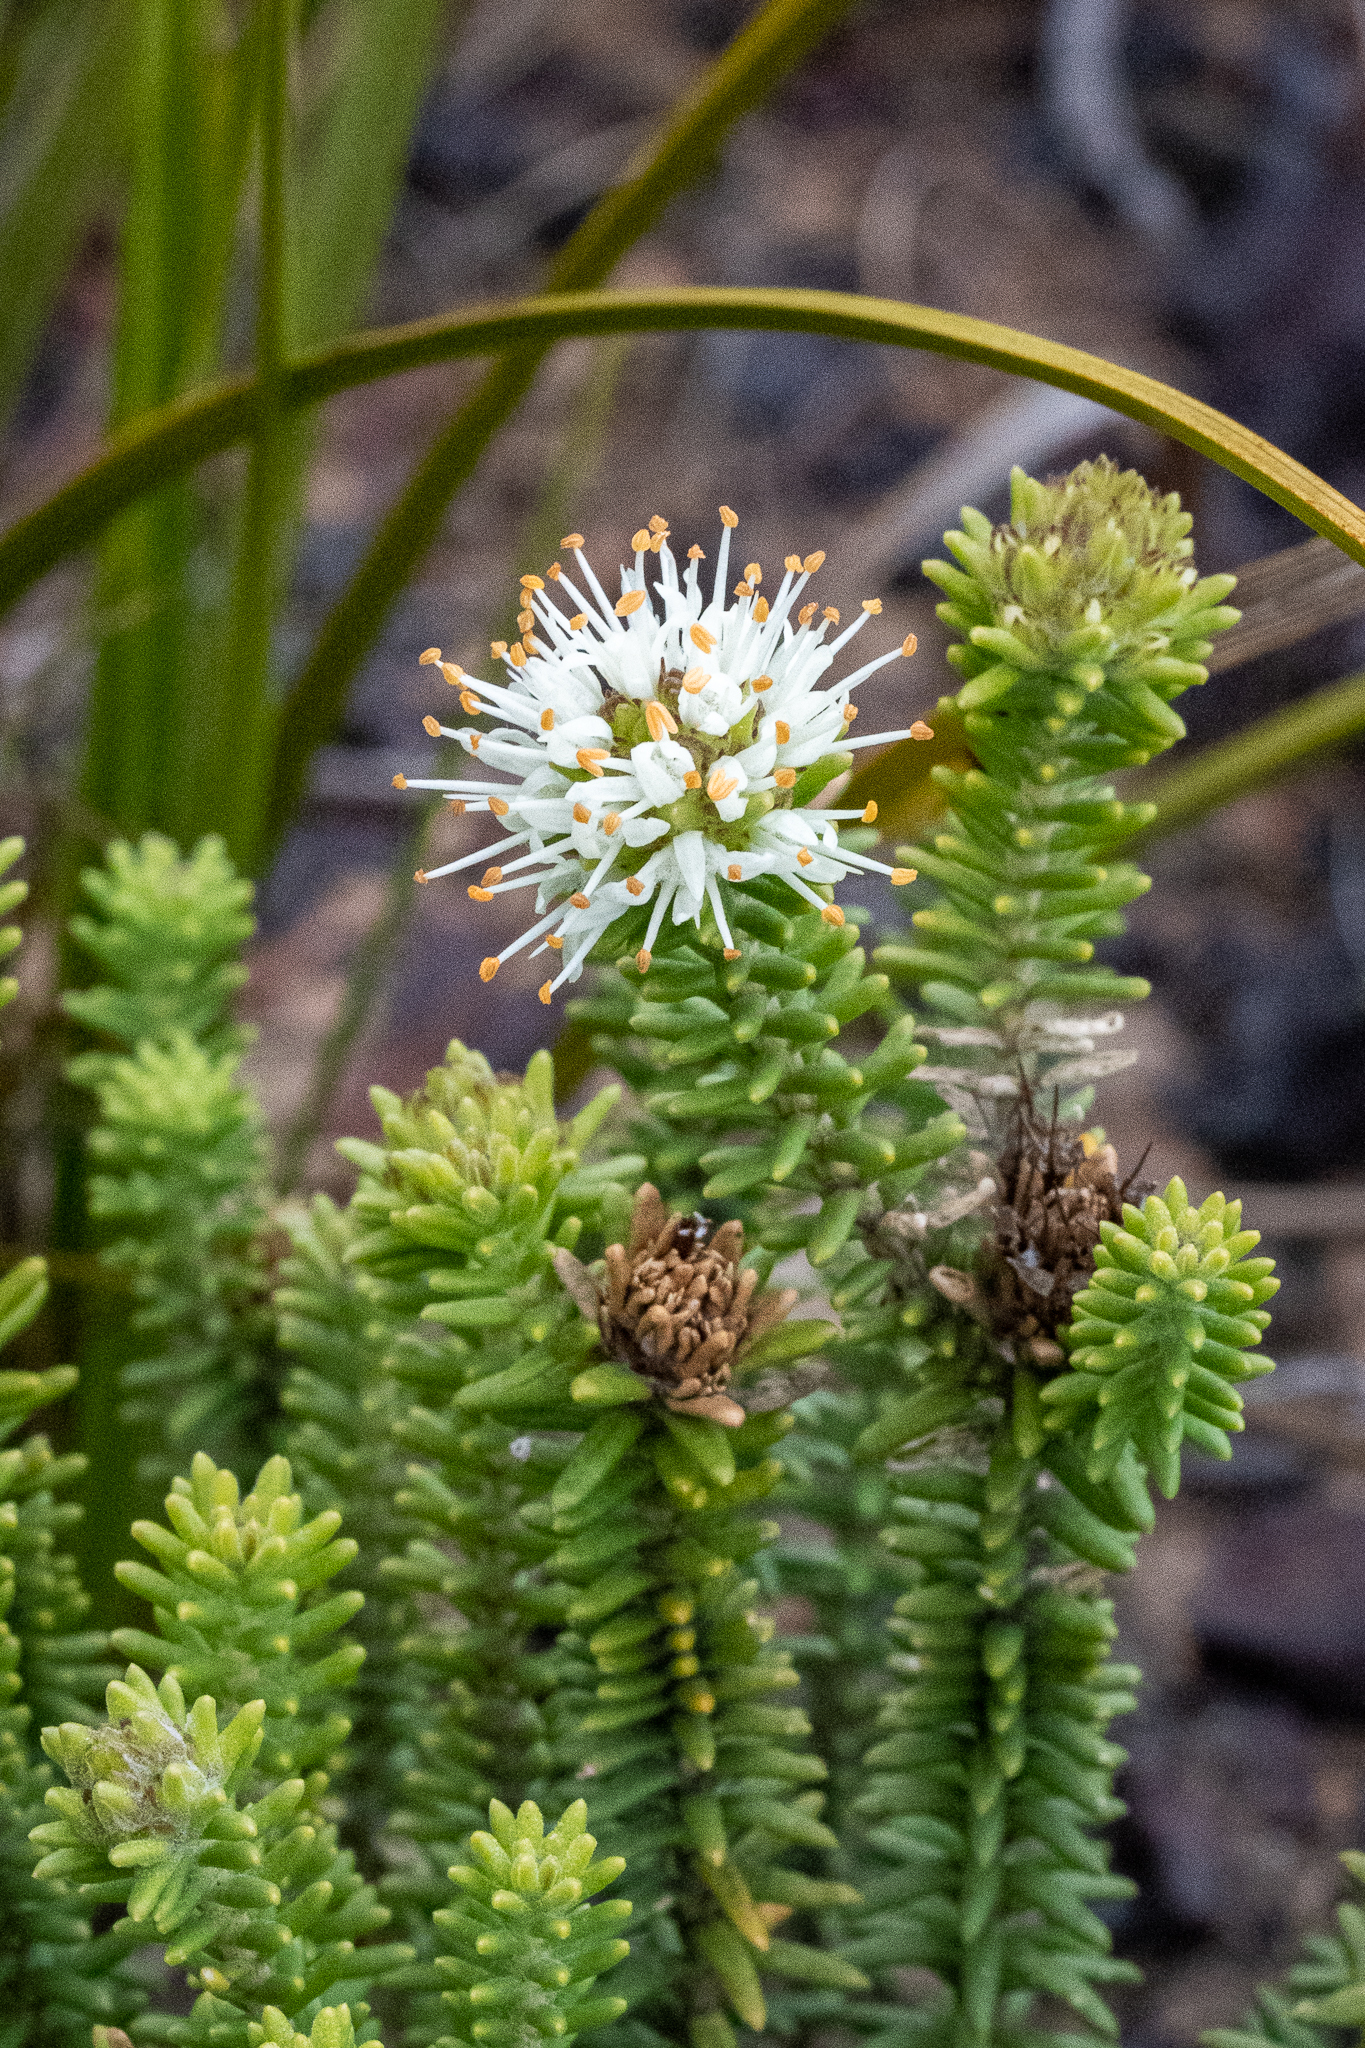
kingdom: Plantae
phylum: Tracheophyta
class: Magnoliopsida
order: Lamiales
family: Stilbaceae
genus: Campylostachys
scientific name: Campylostachys cernua
